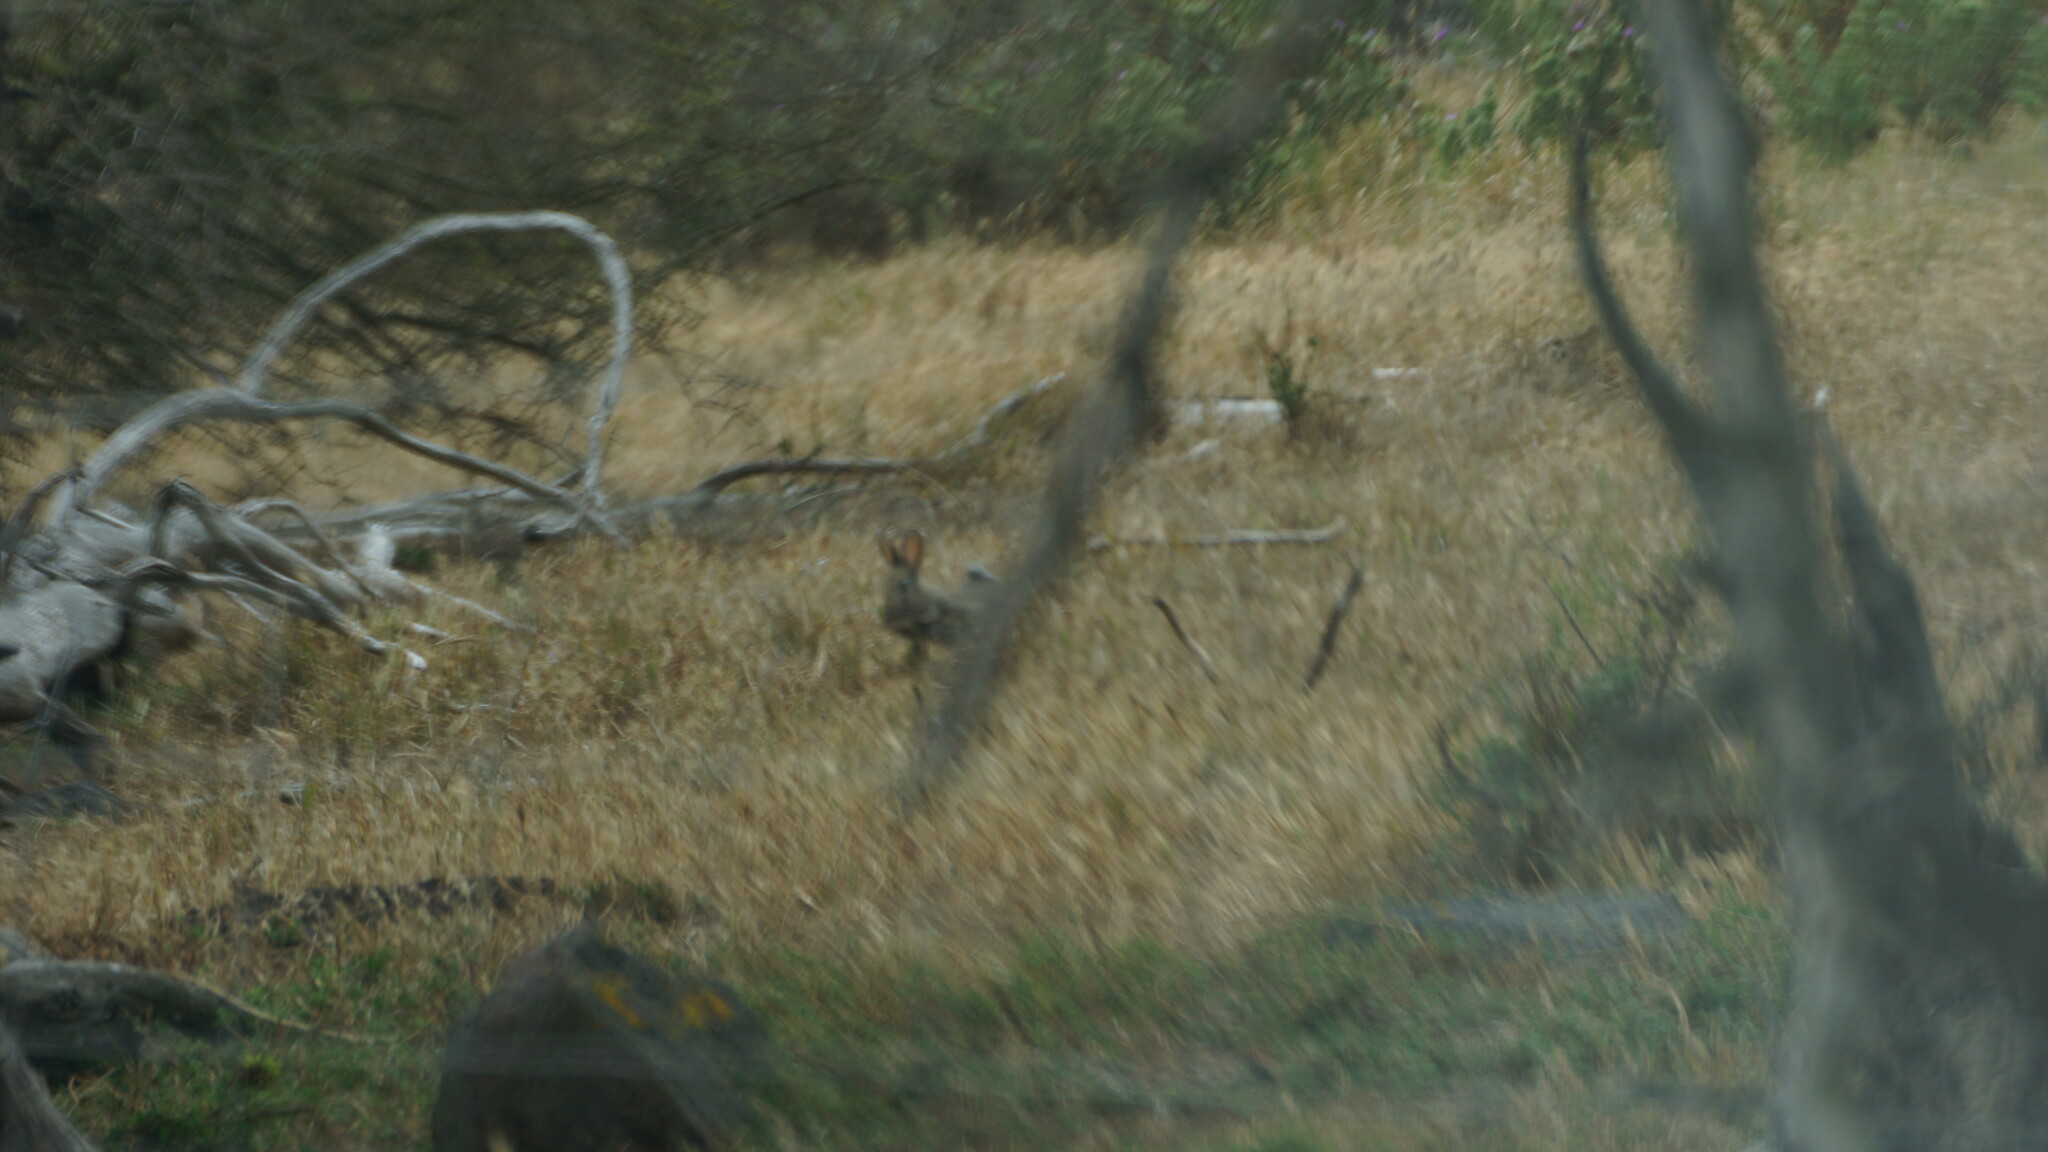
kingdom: Animalia
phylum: Chordata
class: Mammalia
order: Lagomorpha
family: Leporidae
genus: Oryctolagus
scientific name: Oryctolagus cuniculus
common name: European rabbit
